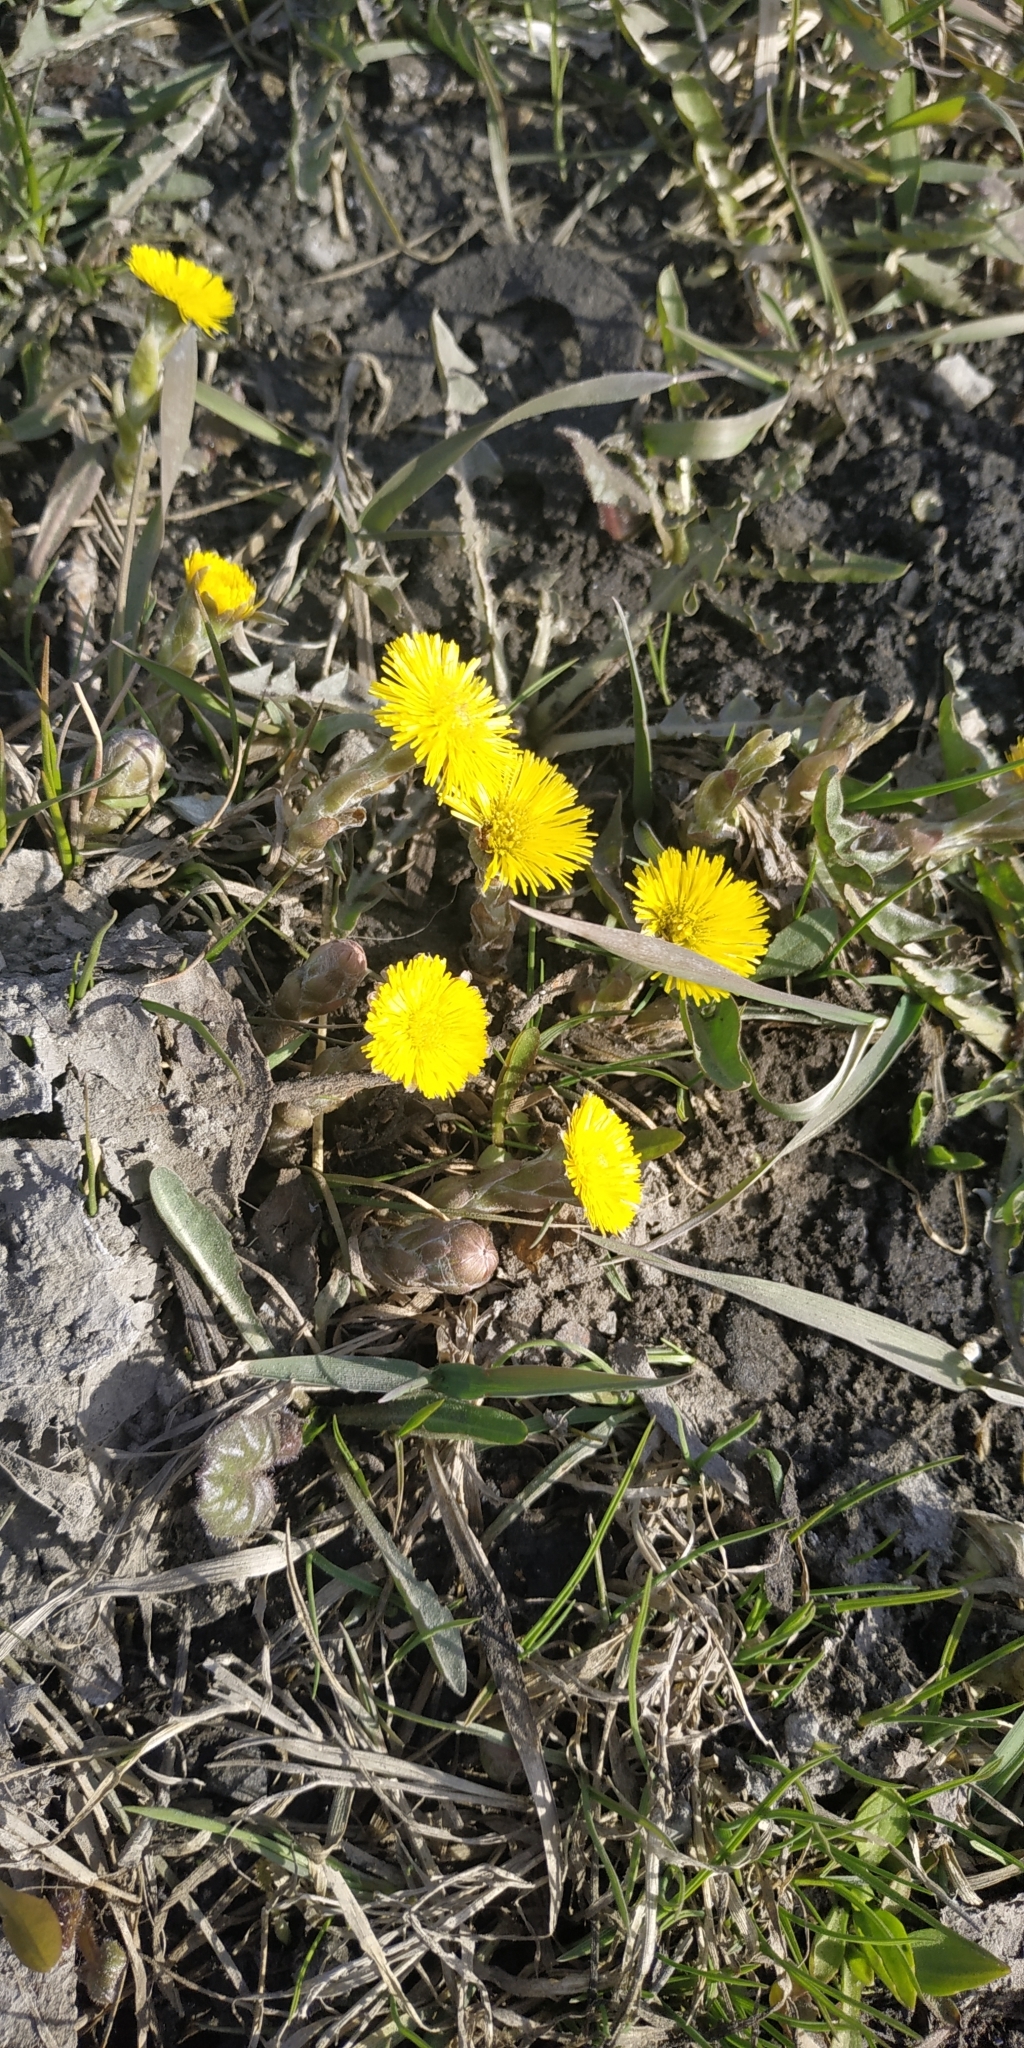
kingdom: Plantae
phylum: Tracheophyta
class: Magnoliopsida
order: Asterales
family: Asteraceae
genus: Tussilago
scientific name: Tussilago farfara
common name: Coltsfoot
